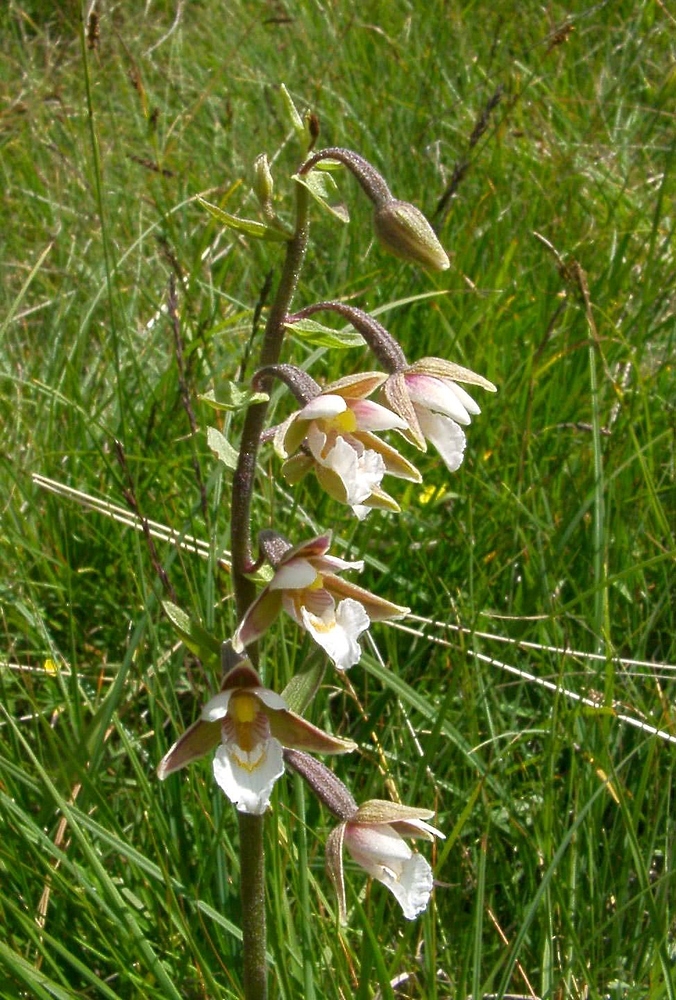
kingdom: Plantae
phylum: Tracheophyta
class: Liliopsida
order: Asparagales
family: Orchidaceae
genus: Epipactis
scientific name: Epipactis palustris
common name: Marsh helleborine
